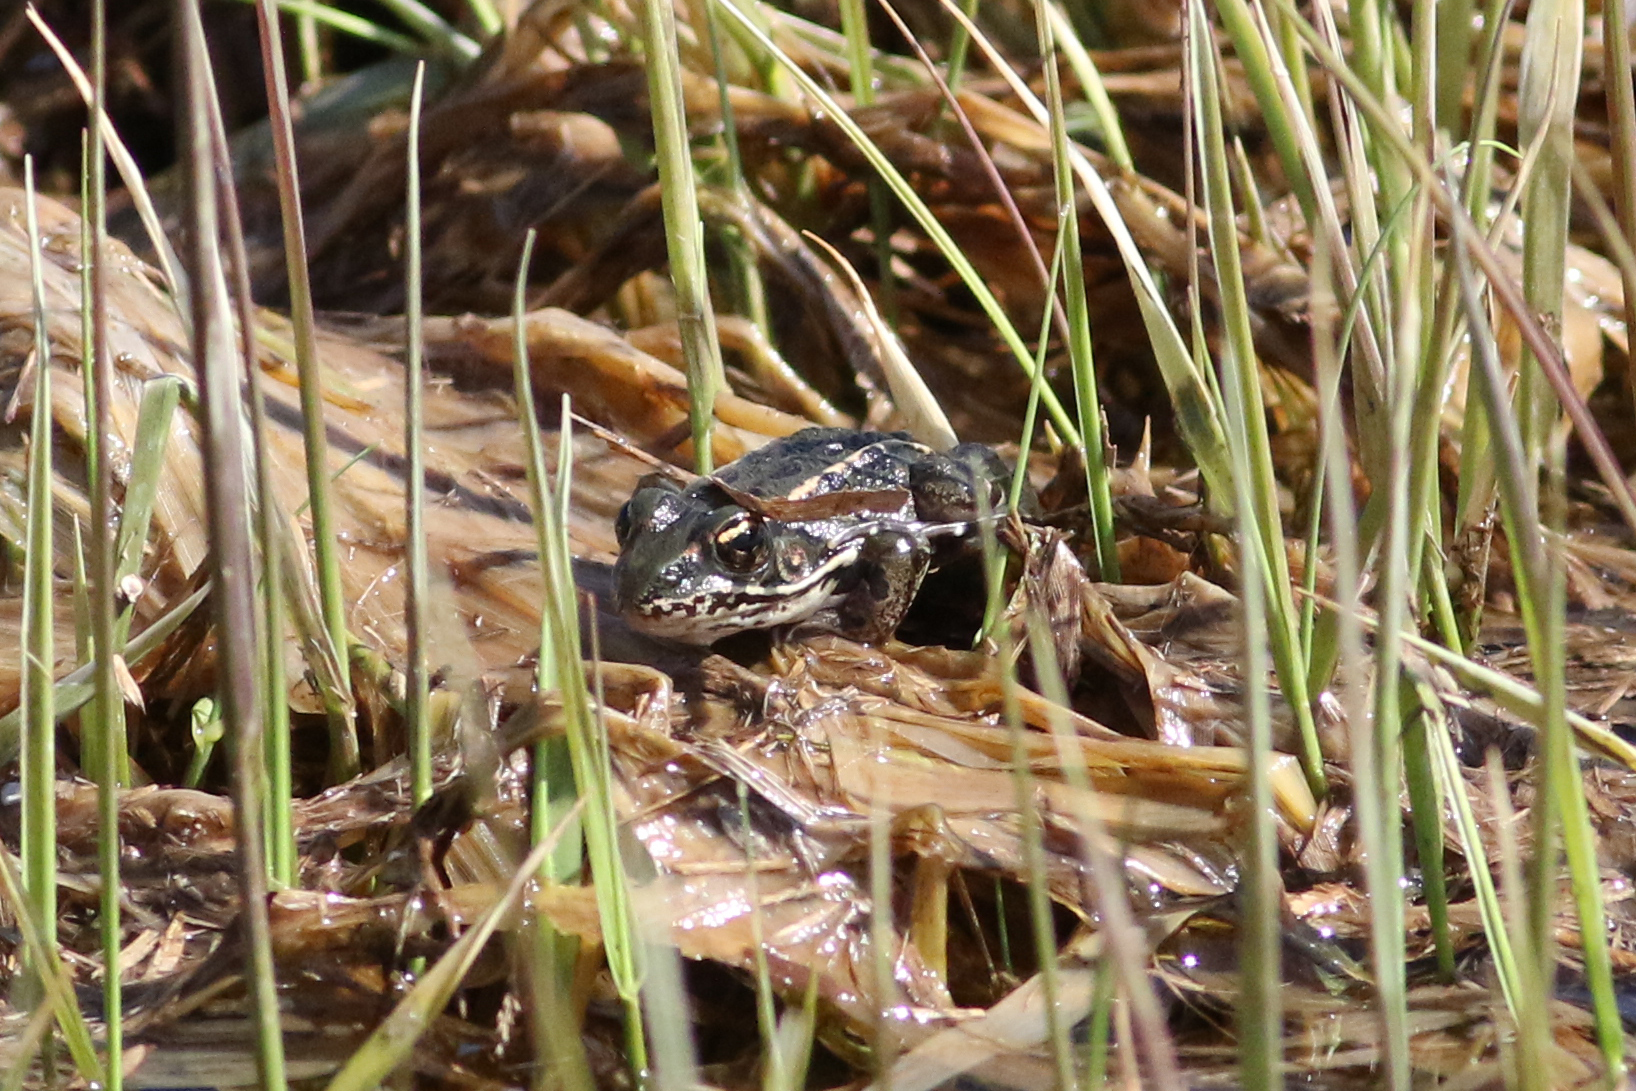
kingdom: Animalia
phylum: Chordata
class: Amphibia
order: Anura
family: Ranidae
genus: Lithobates
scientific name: Lithobates pipiens
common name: Northern leopard frog
